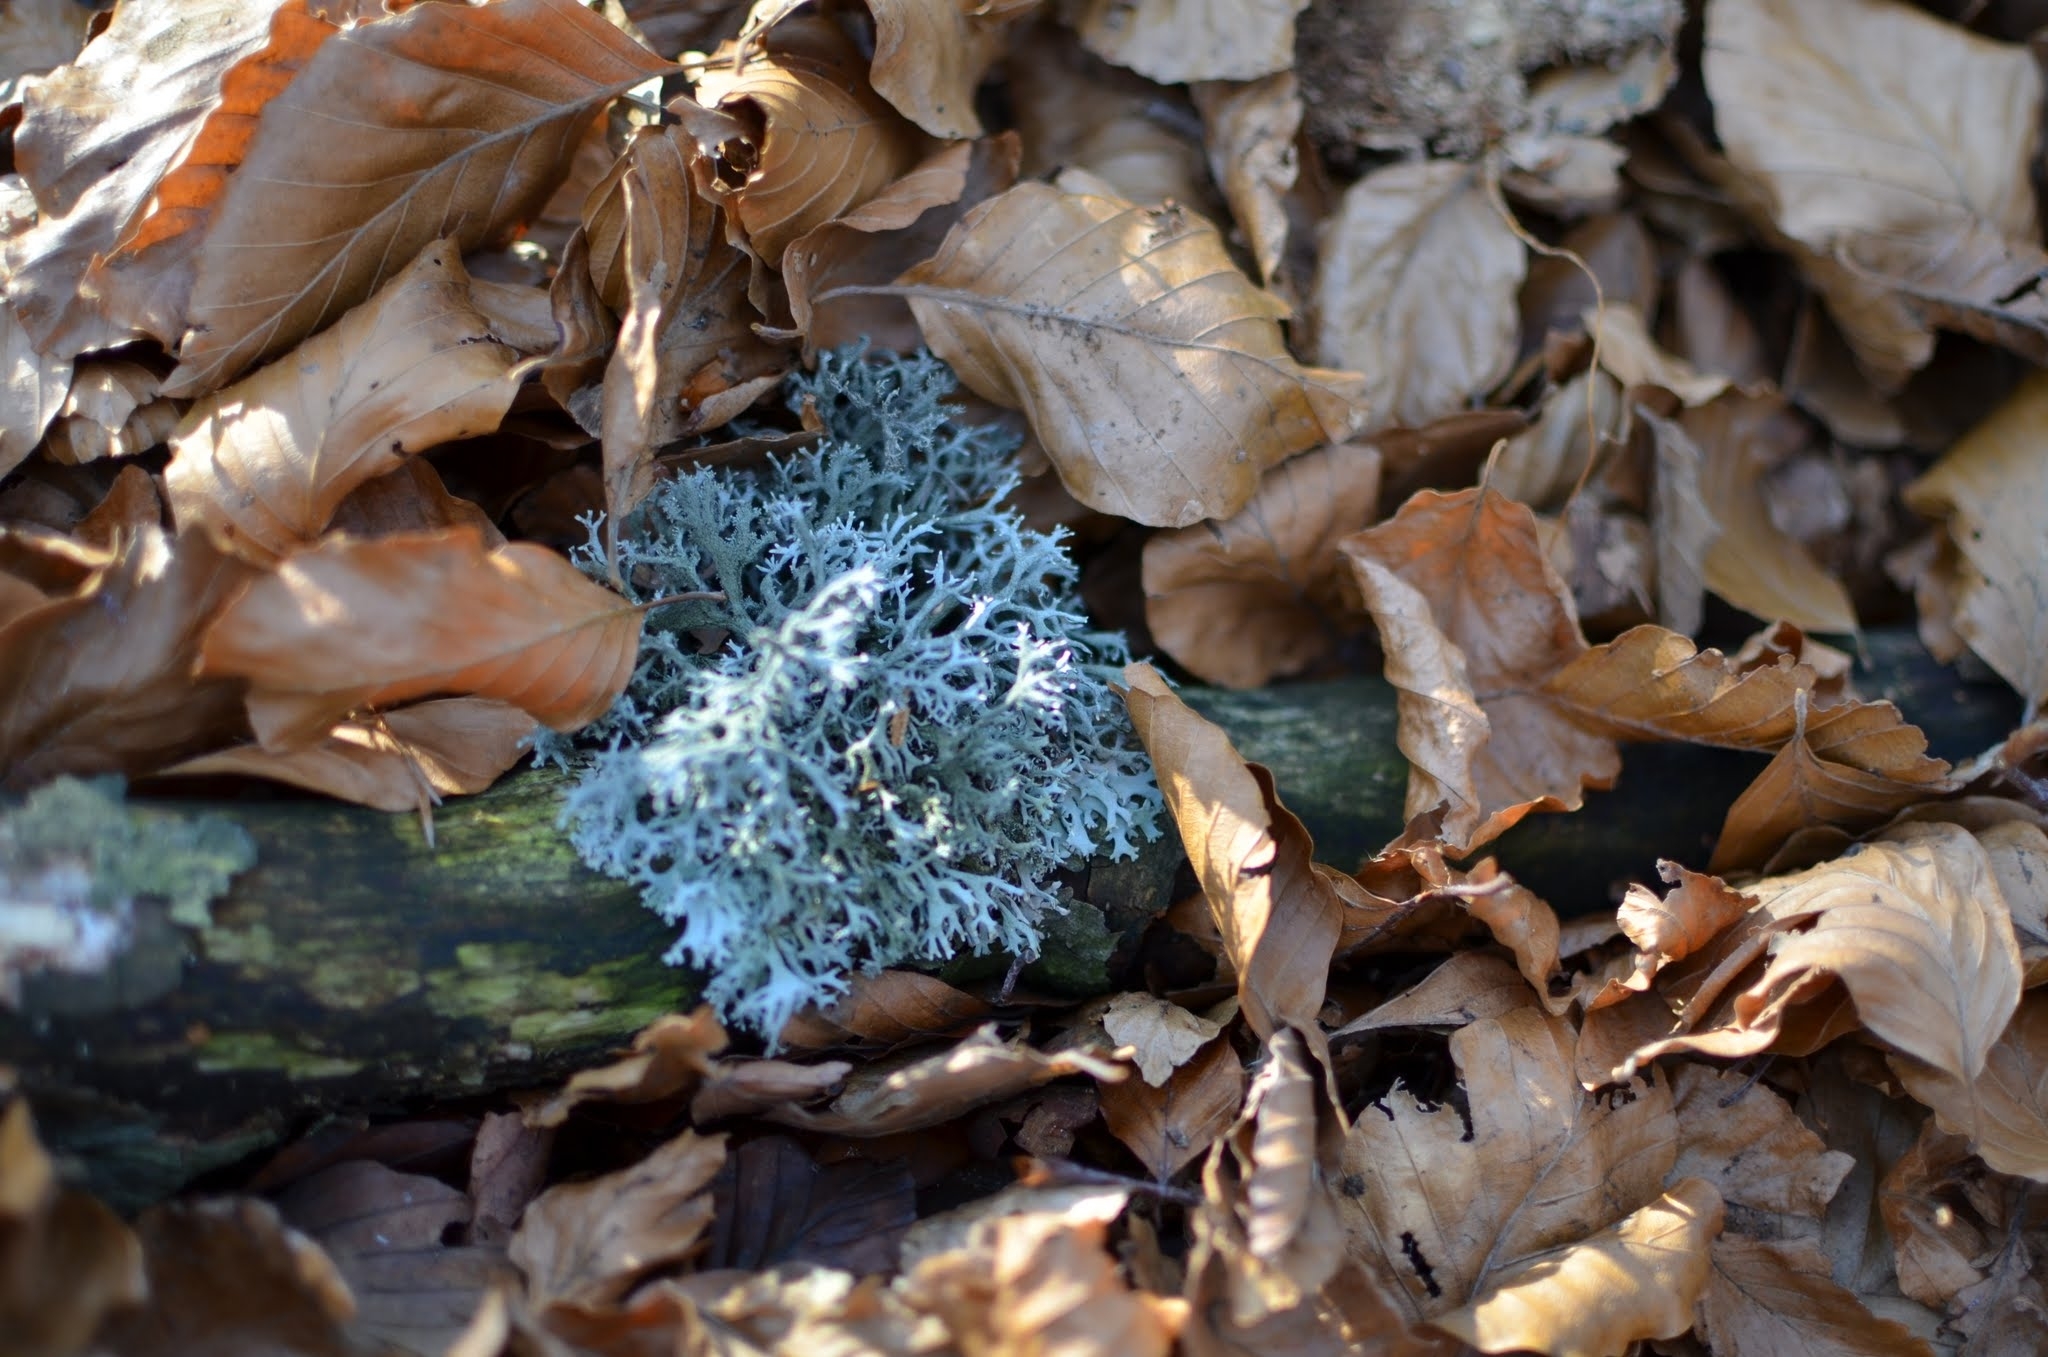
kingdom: Fungi
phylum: Ascomycota
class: Lecanoromycetes
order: Lecanorales
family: Parmeliaceae
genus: Pseudevernia
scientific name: Pseudevernia furfuracea
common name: Tree moss
